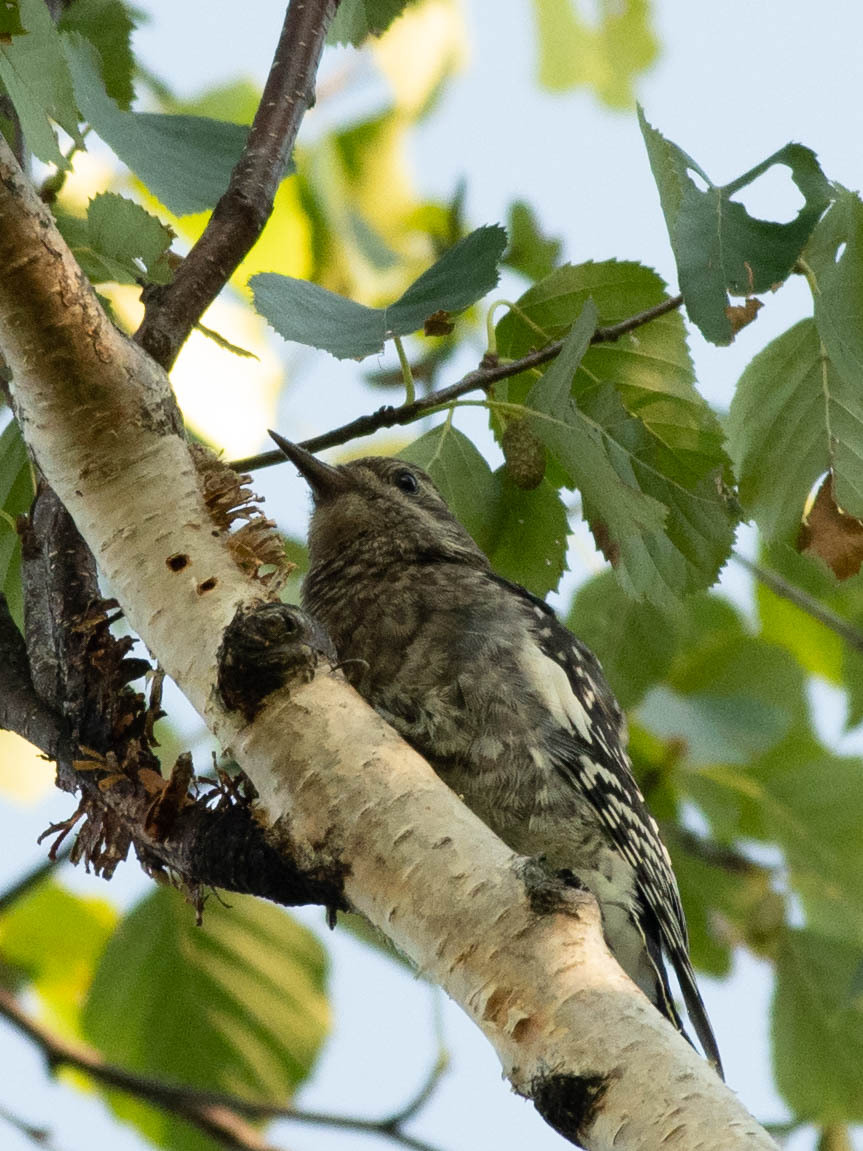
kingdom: Animalia
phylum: Chordata
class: Aves
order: Piciformes
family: Picidae
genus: Sphyrapicus
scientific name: Sphyrapicus varius
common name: Yellow-bellied sapsucker
